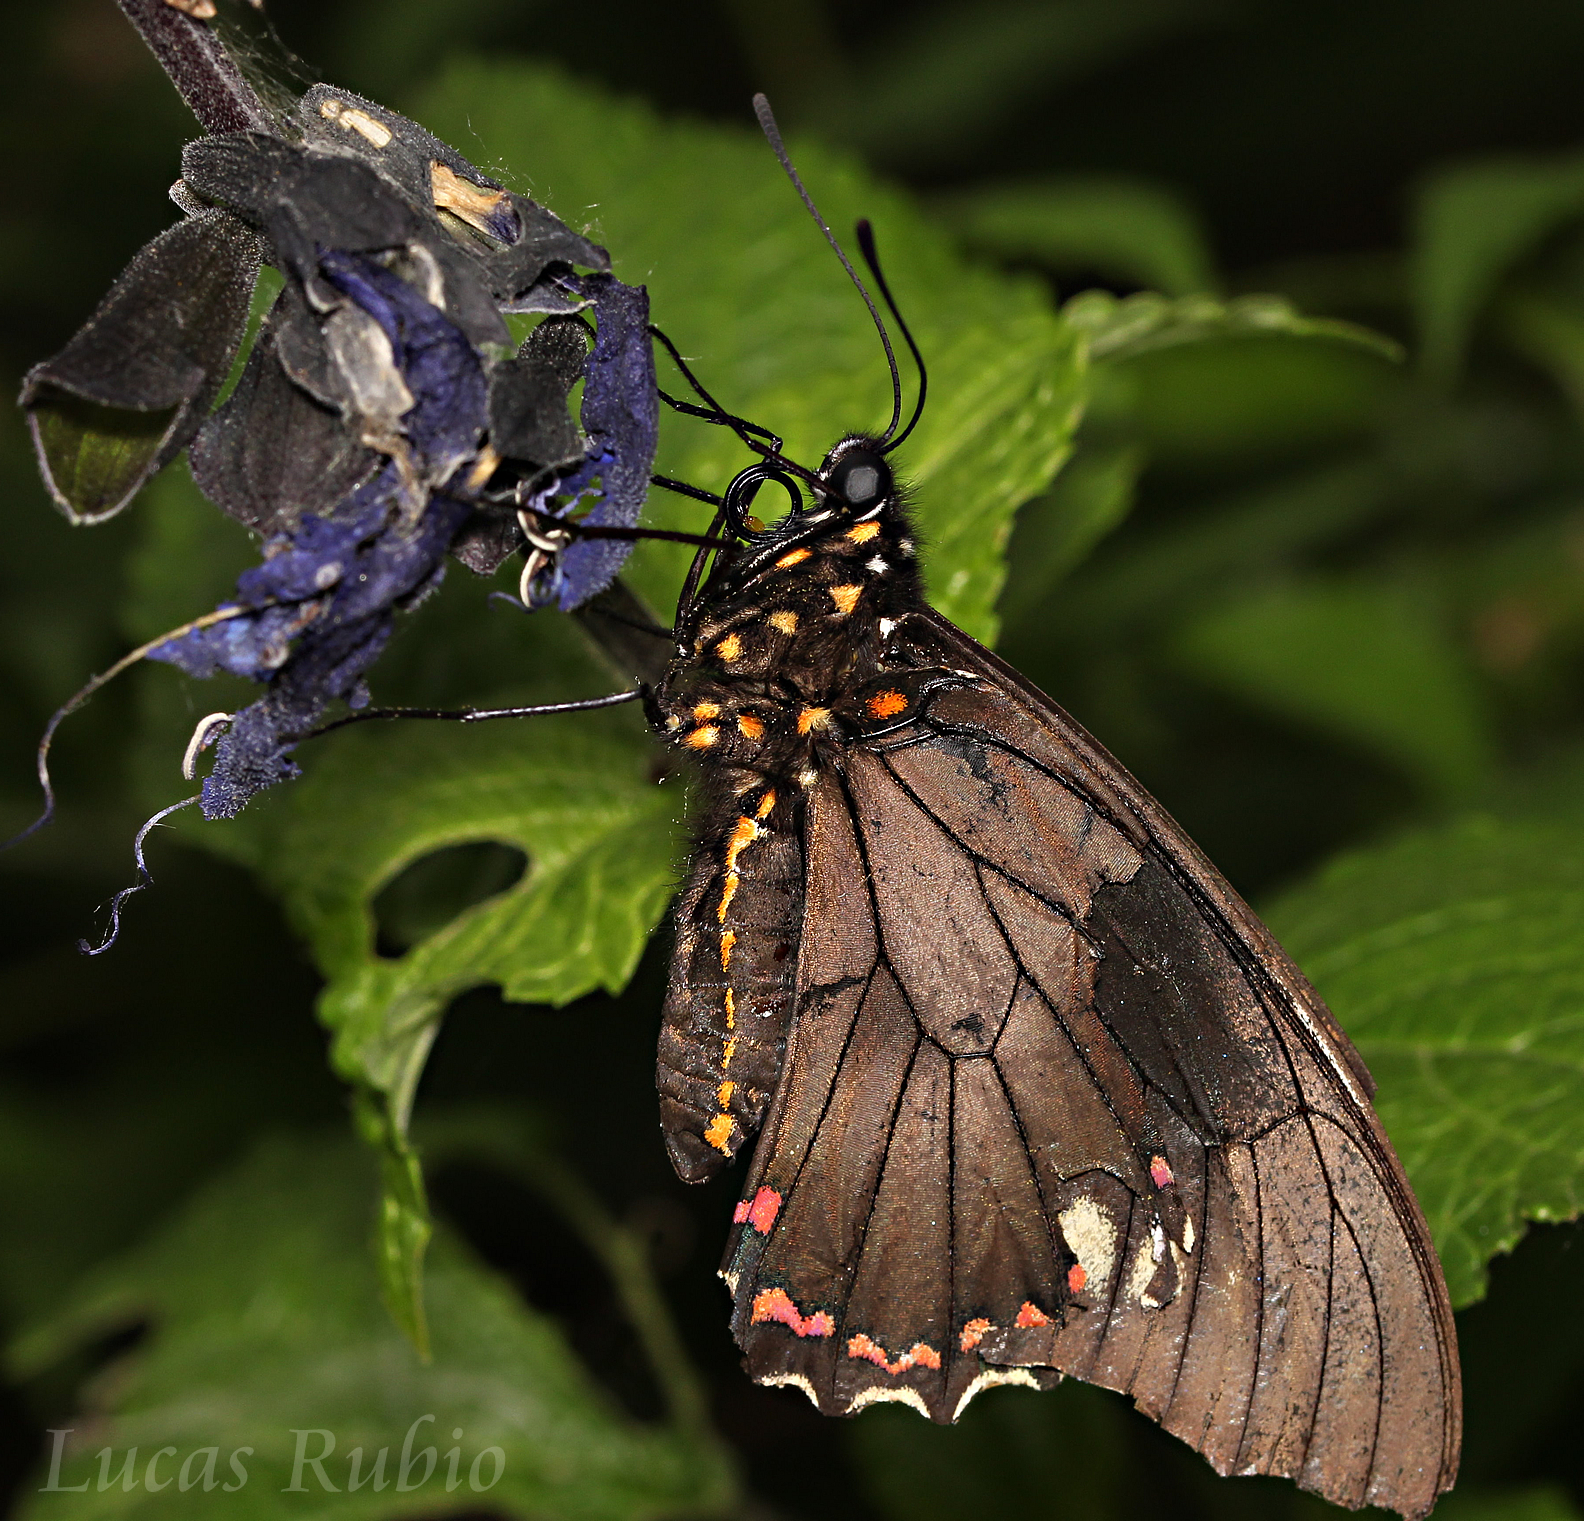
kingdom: Animalia
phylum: Arthropoda
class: Insecta
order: Lepidoptera
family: Papilionidae
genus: Battus
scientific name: Battus polydamas
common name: Polydamas swallowtail
